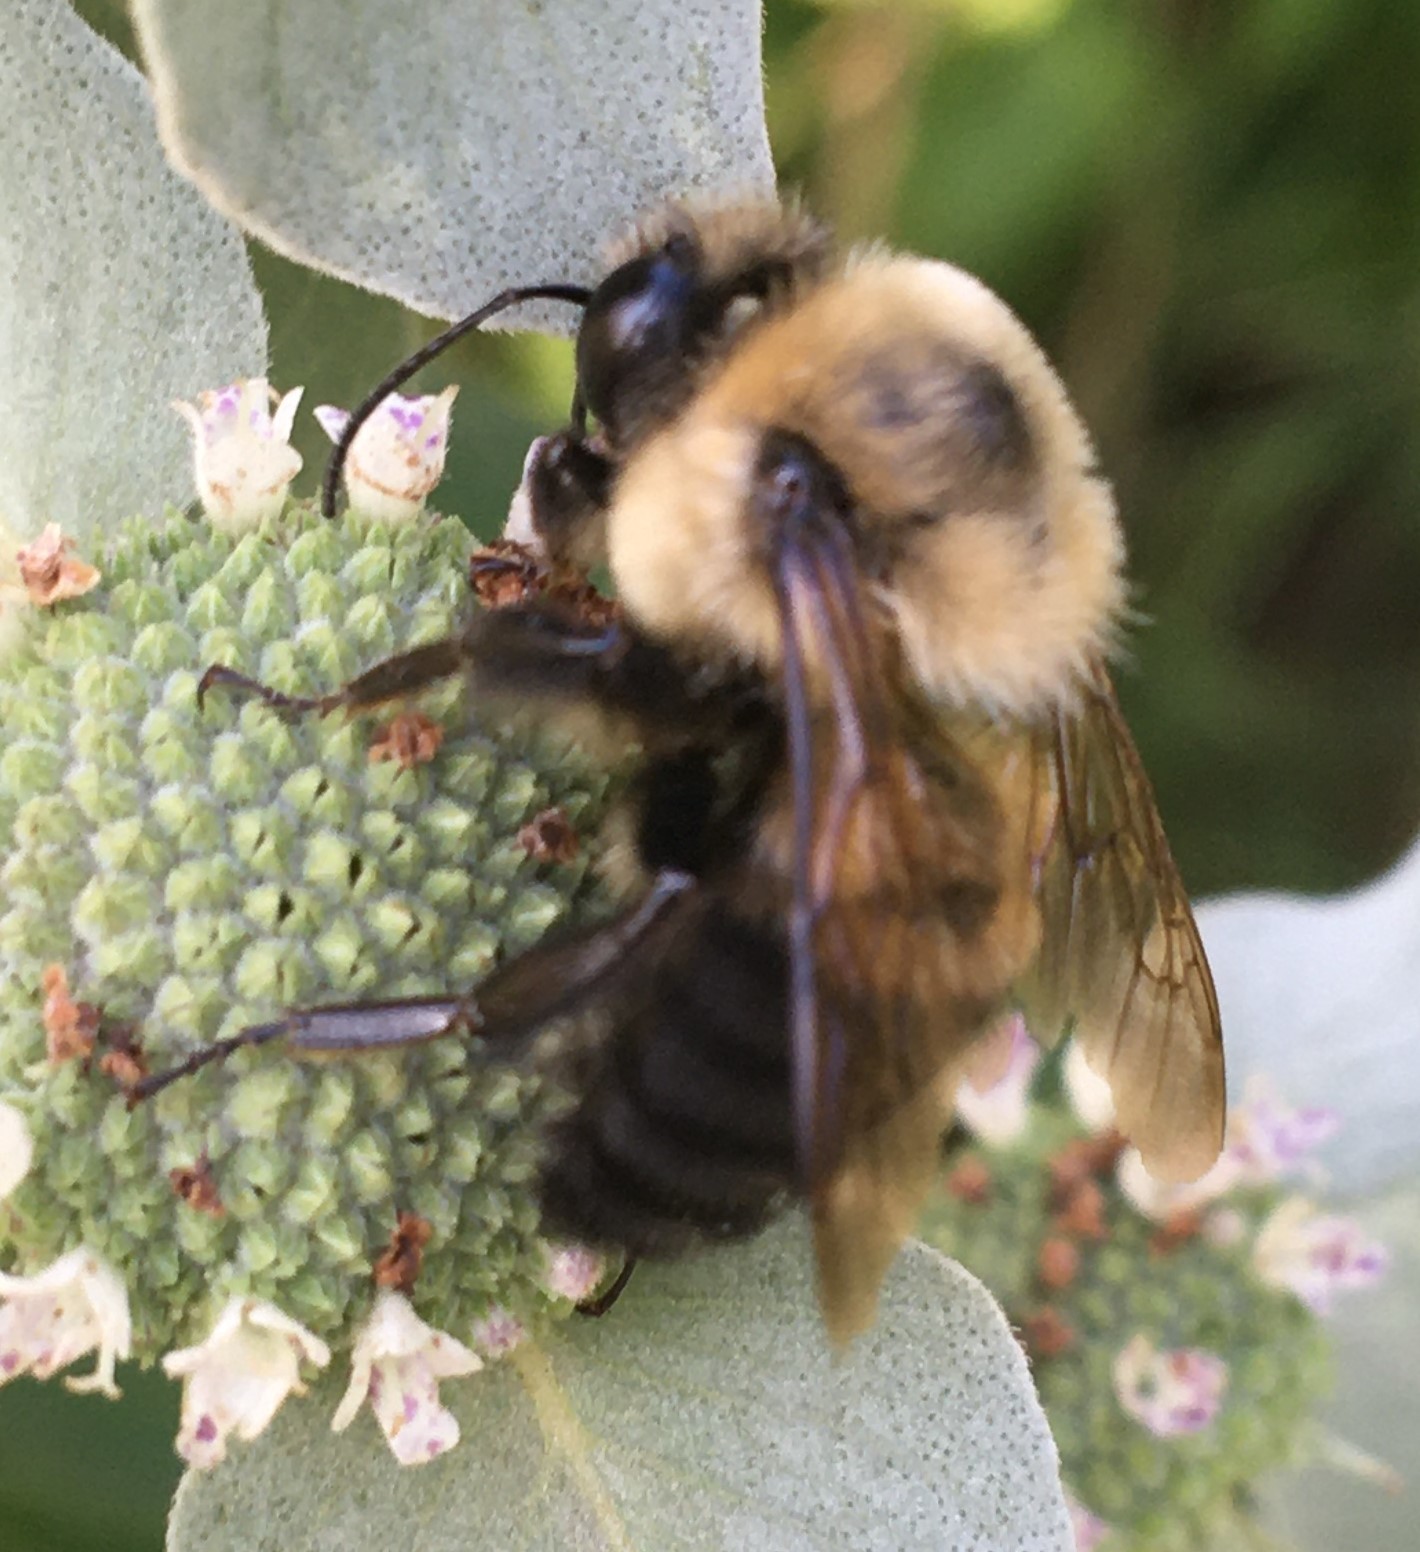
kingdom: Animalia
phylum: Arthropoda
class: Insecta
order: Hymenoptera
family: Apidae
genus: Bombus
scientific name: Bombus griseocollis
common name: Brown-belted bumble bee
